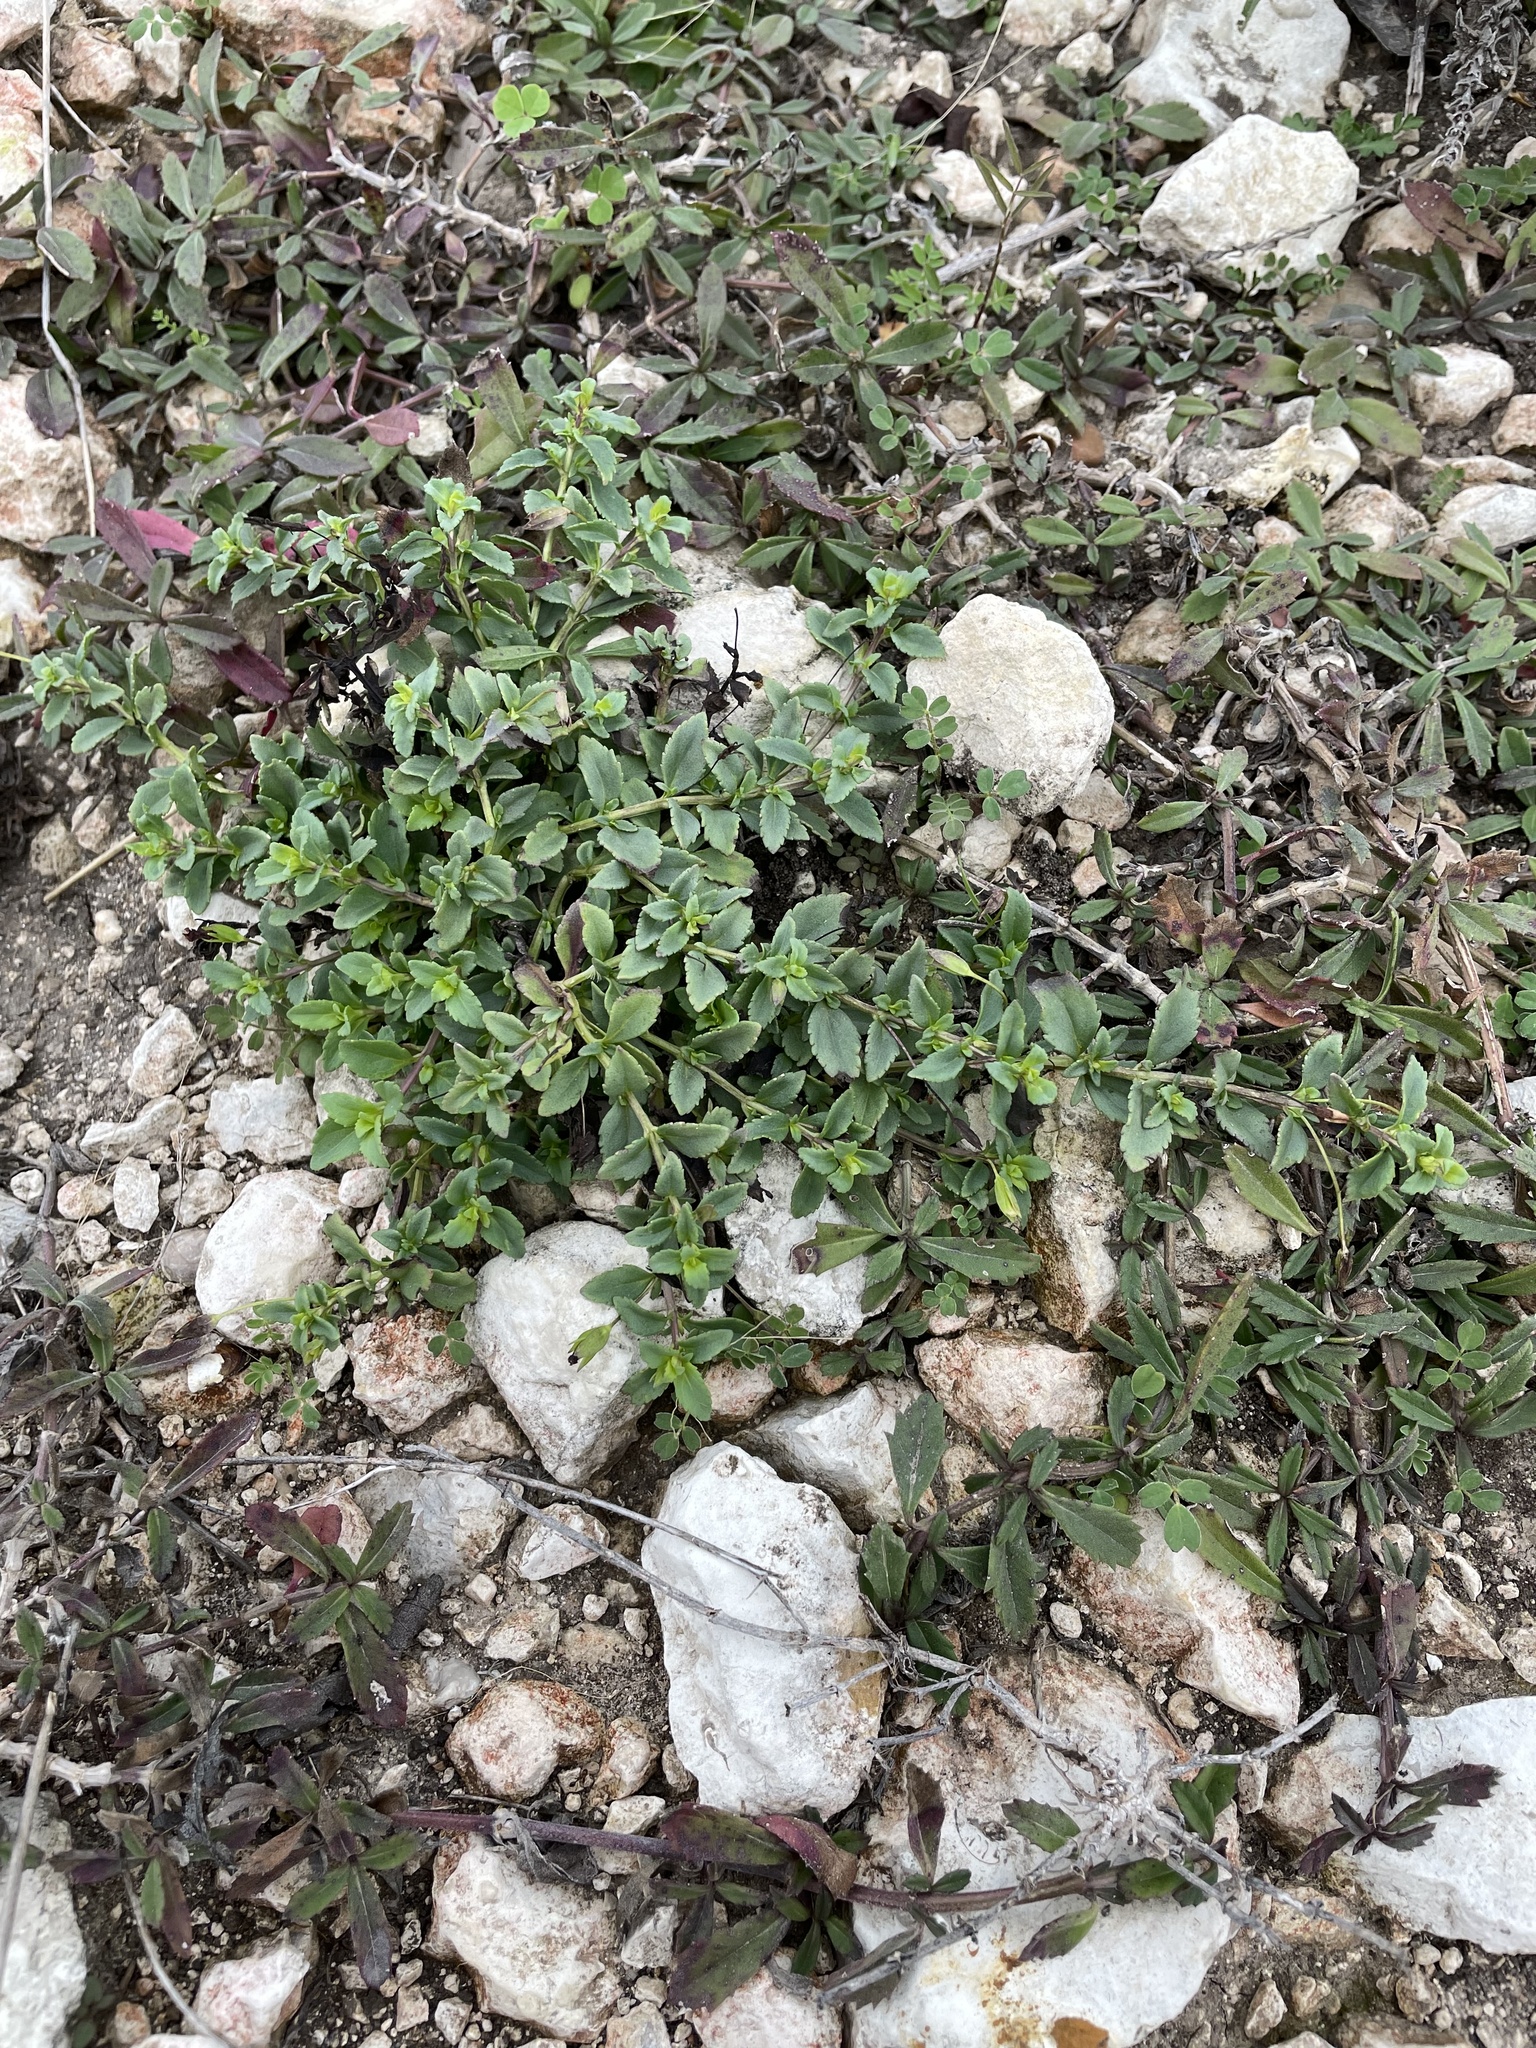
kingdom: Plantae
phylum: Tracheophyta
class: Magnoliopsida
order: Lamiales
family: Plantaginaceae
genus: Mecardonia
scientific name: Mecardonia procumbens
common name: Baby jump-up
